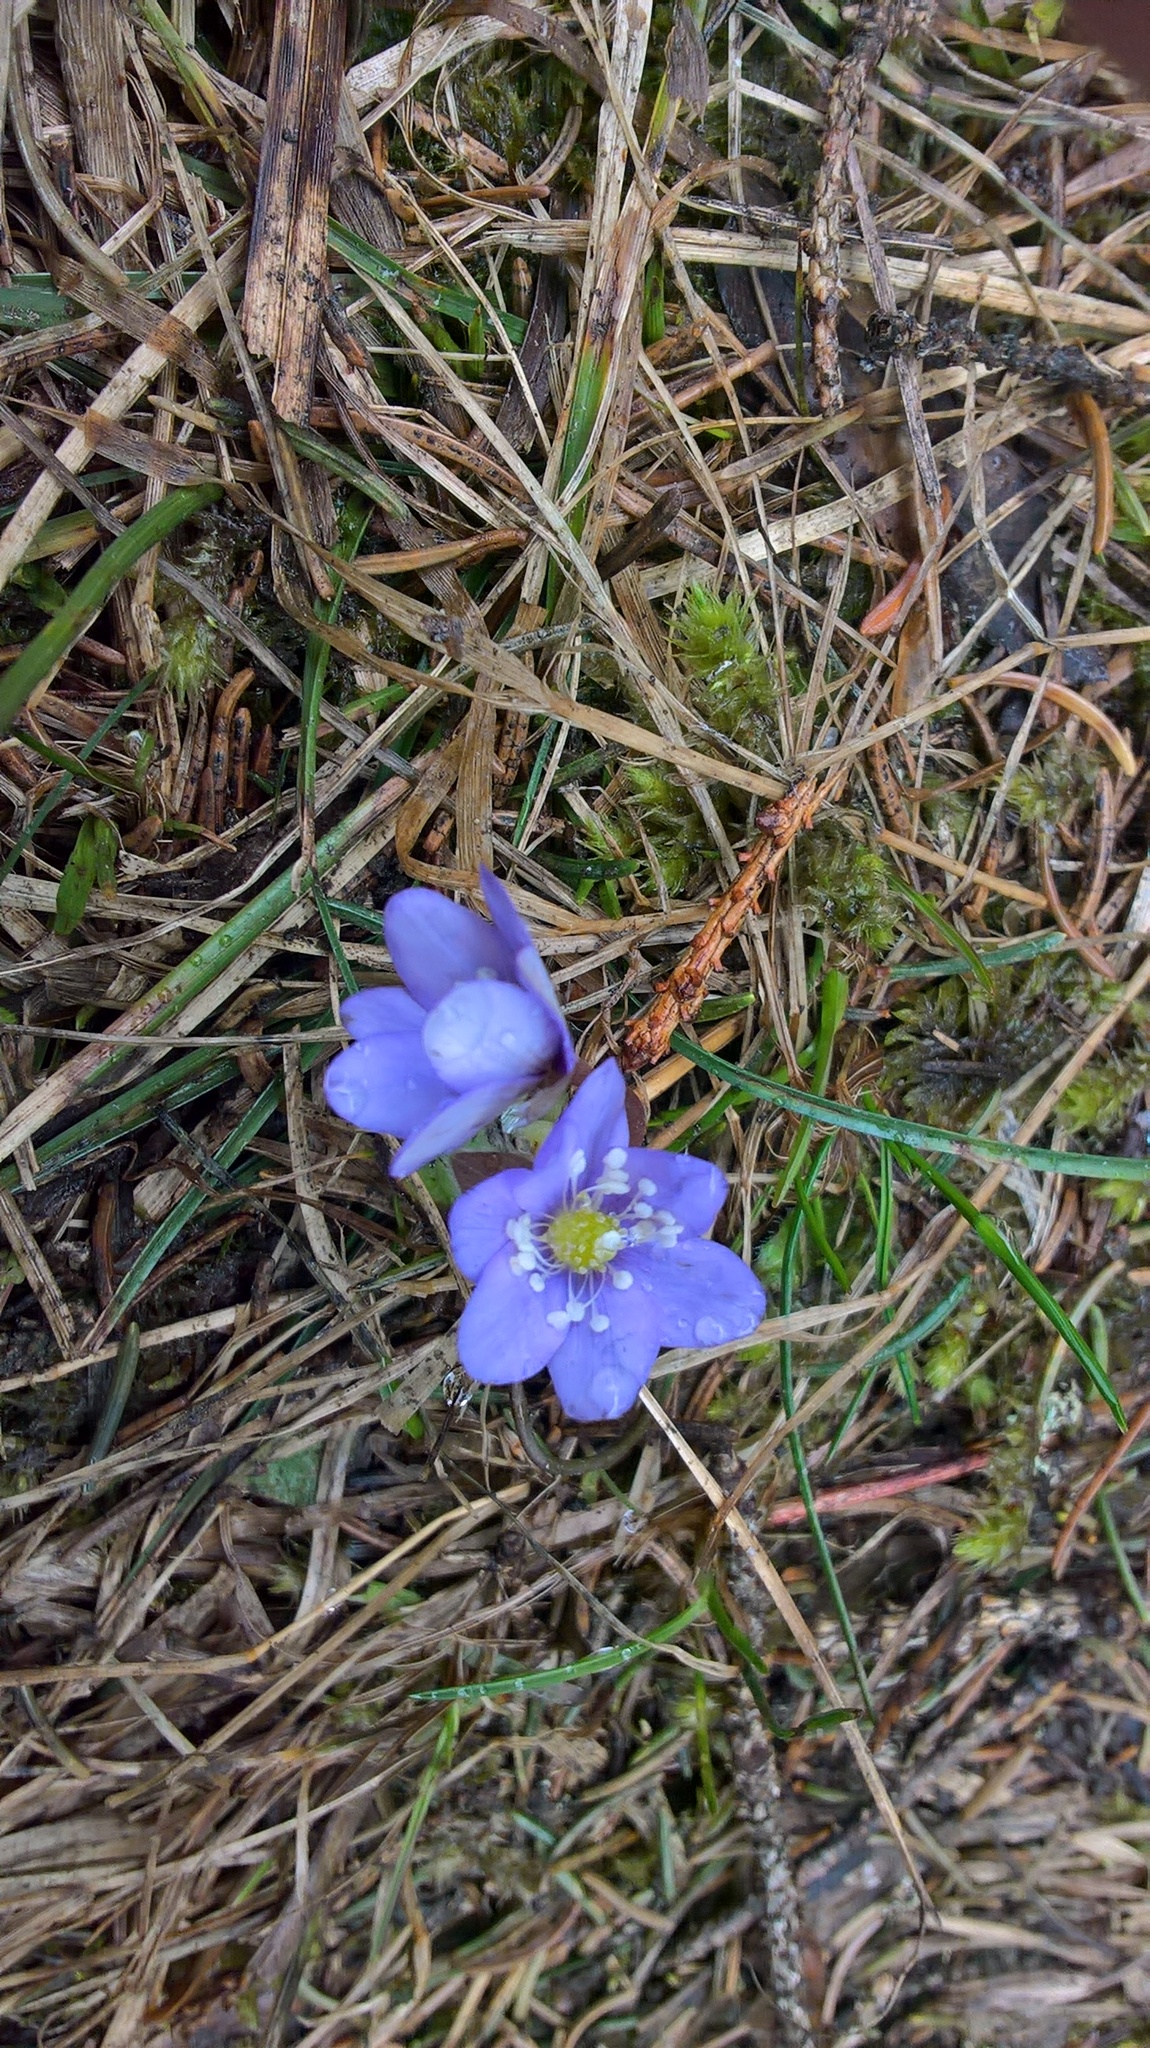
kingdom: Plantae
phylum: Tracheophyta
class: Magnoliopsida
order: Ranunculales
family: Ranunculaceae
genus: Hepatica
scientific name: Hepatica nobilis
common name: Liverleaf
